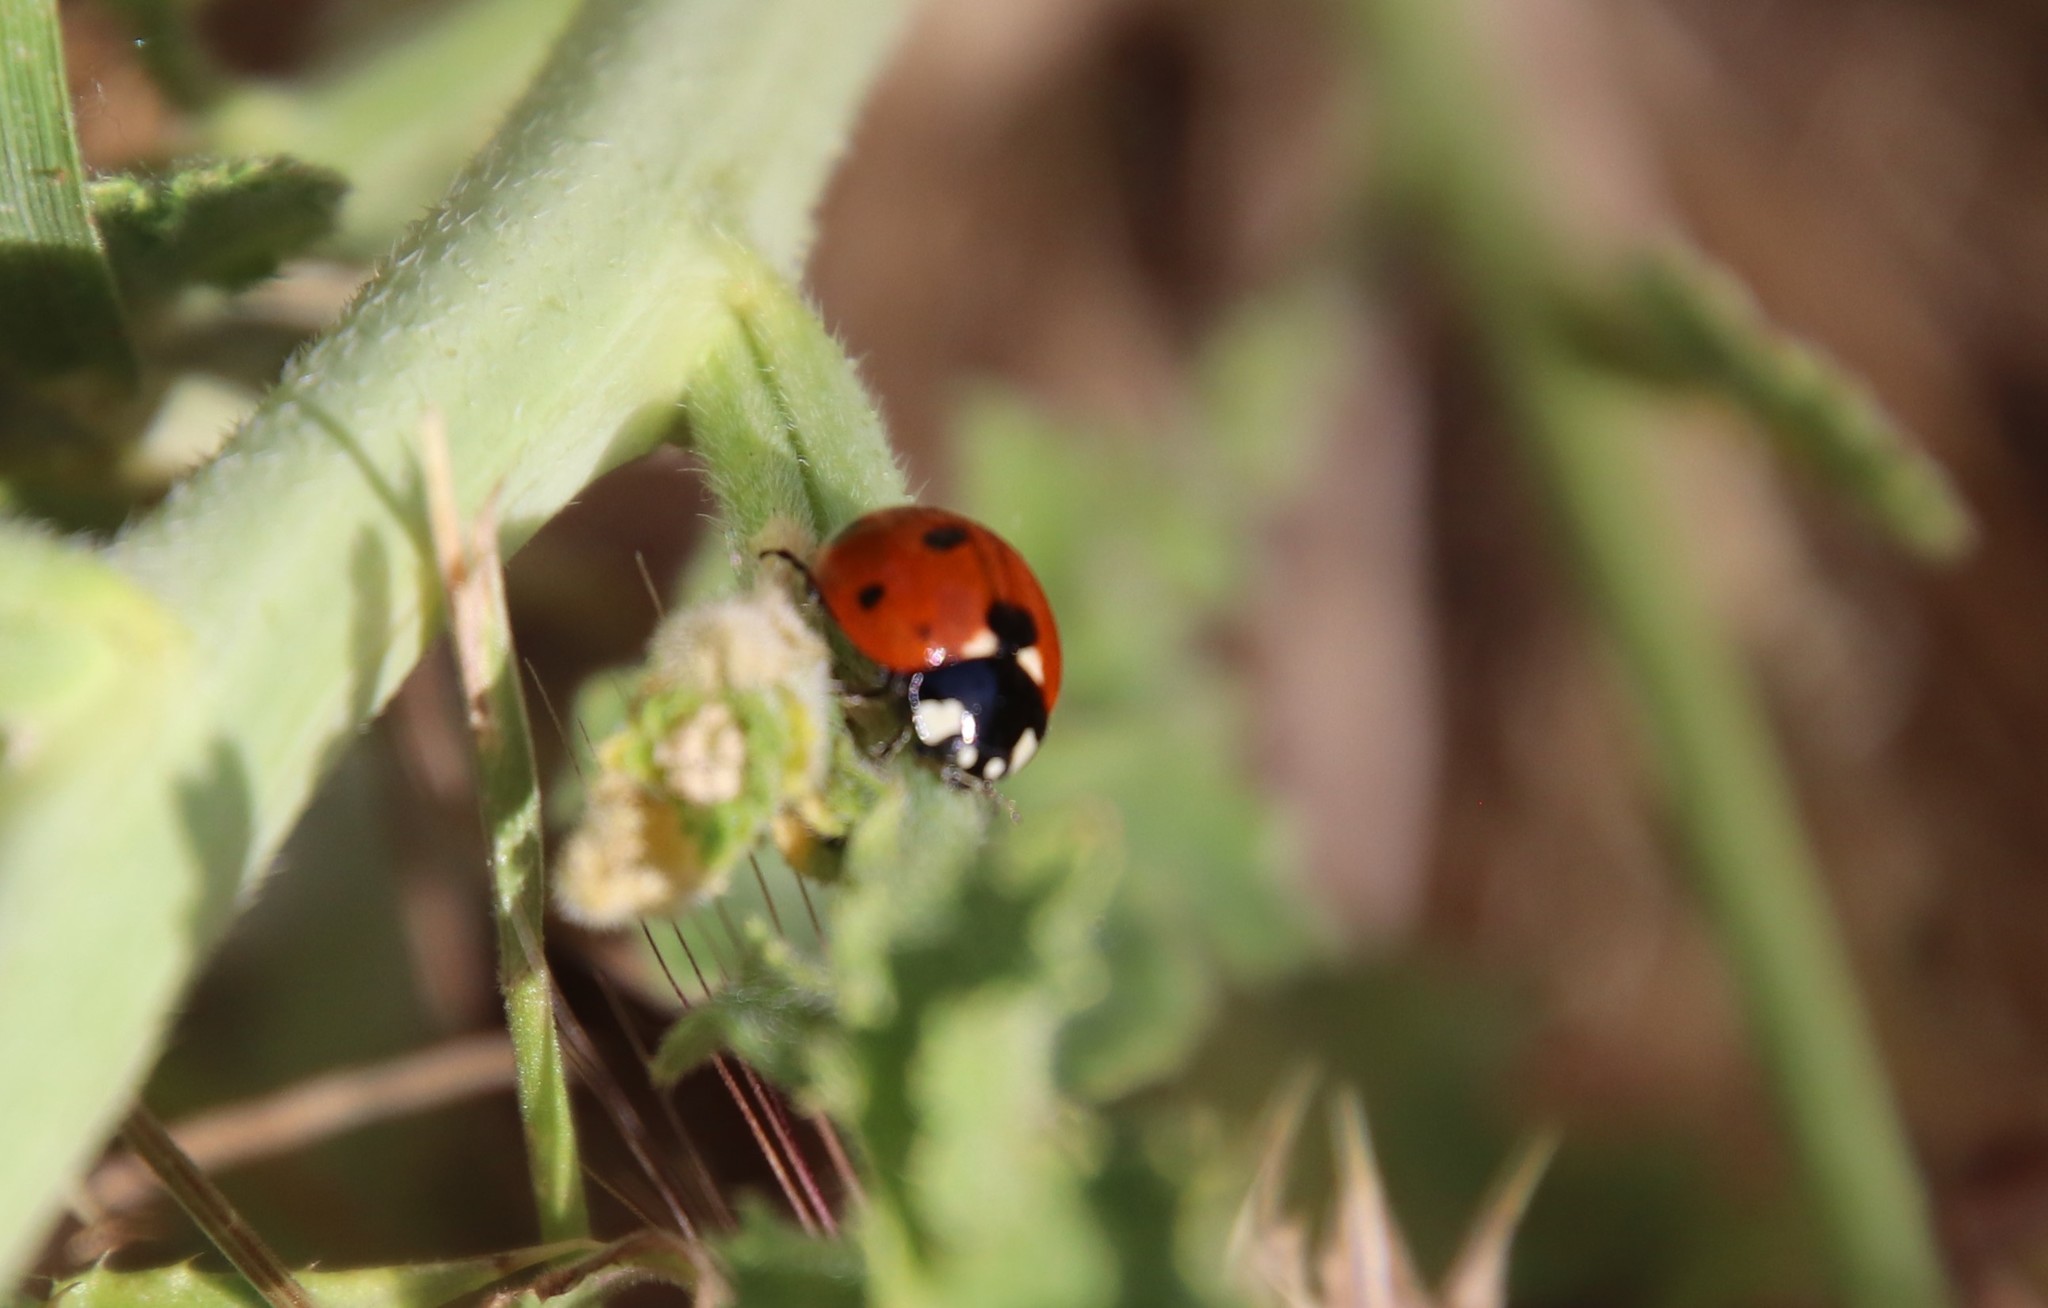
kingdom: Animalia
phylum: Arthropoda
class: Insecta
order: Coleoptera
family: Coccinellidae
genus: Coccinella
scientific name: Coccinella septempunctata
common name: Sevenspotted lady beetle
